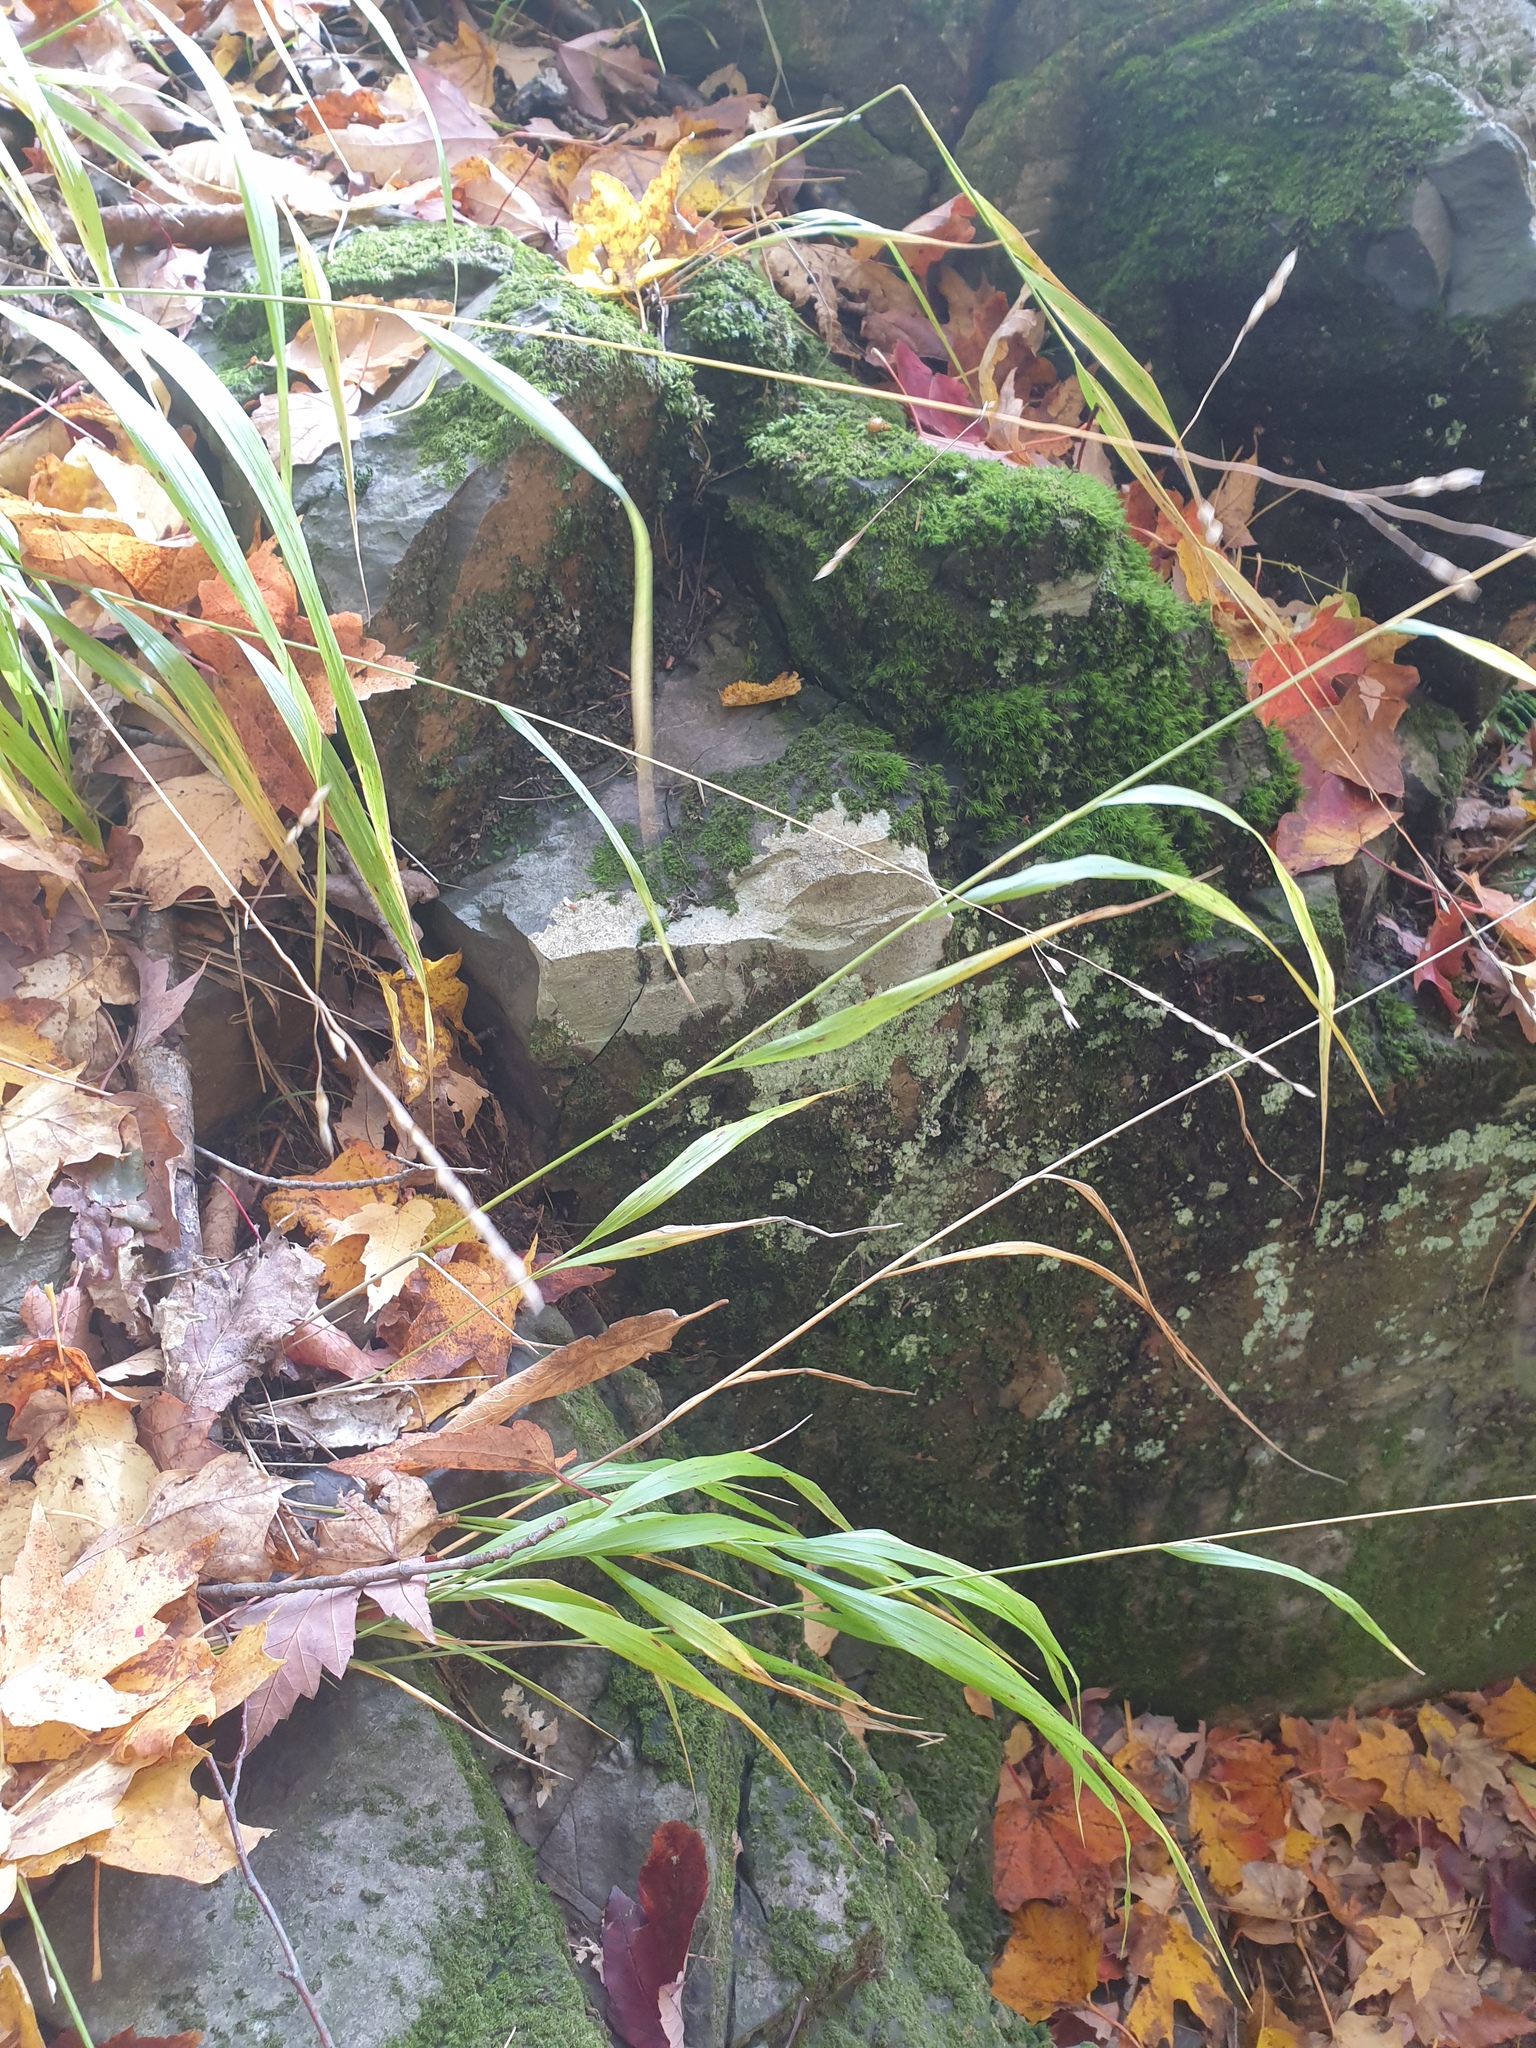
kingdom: Plantae
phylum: Tracheophyta
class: Liliopsida
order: Poales
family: Poaceae
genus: Patis
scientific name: Patis racemosa
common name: Black-fruited mountain rice
